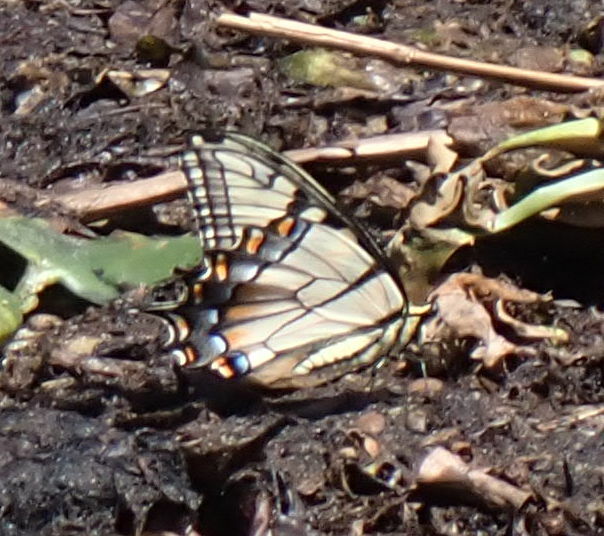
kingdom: Animalia
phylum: Arthropoda
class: Insecta
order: Lepidoptera
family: Papilionidae
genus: Papilio
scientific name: Papilio glaucus
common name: Tiger swallowtail
